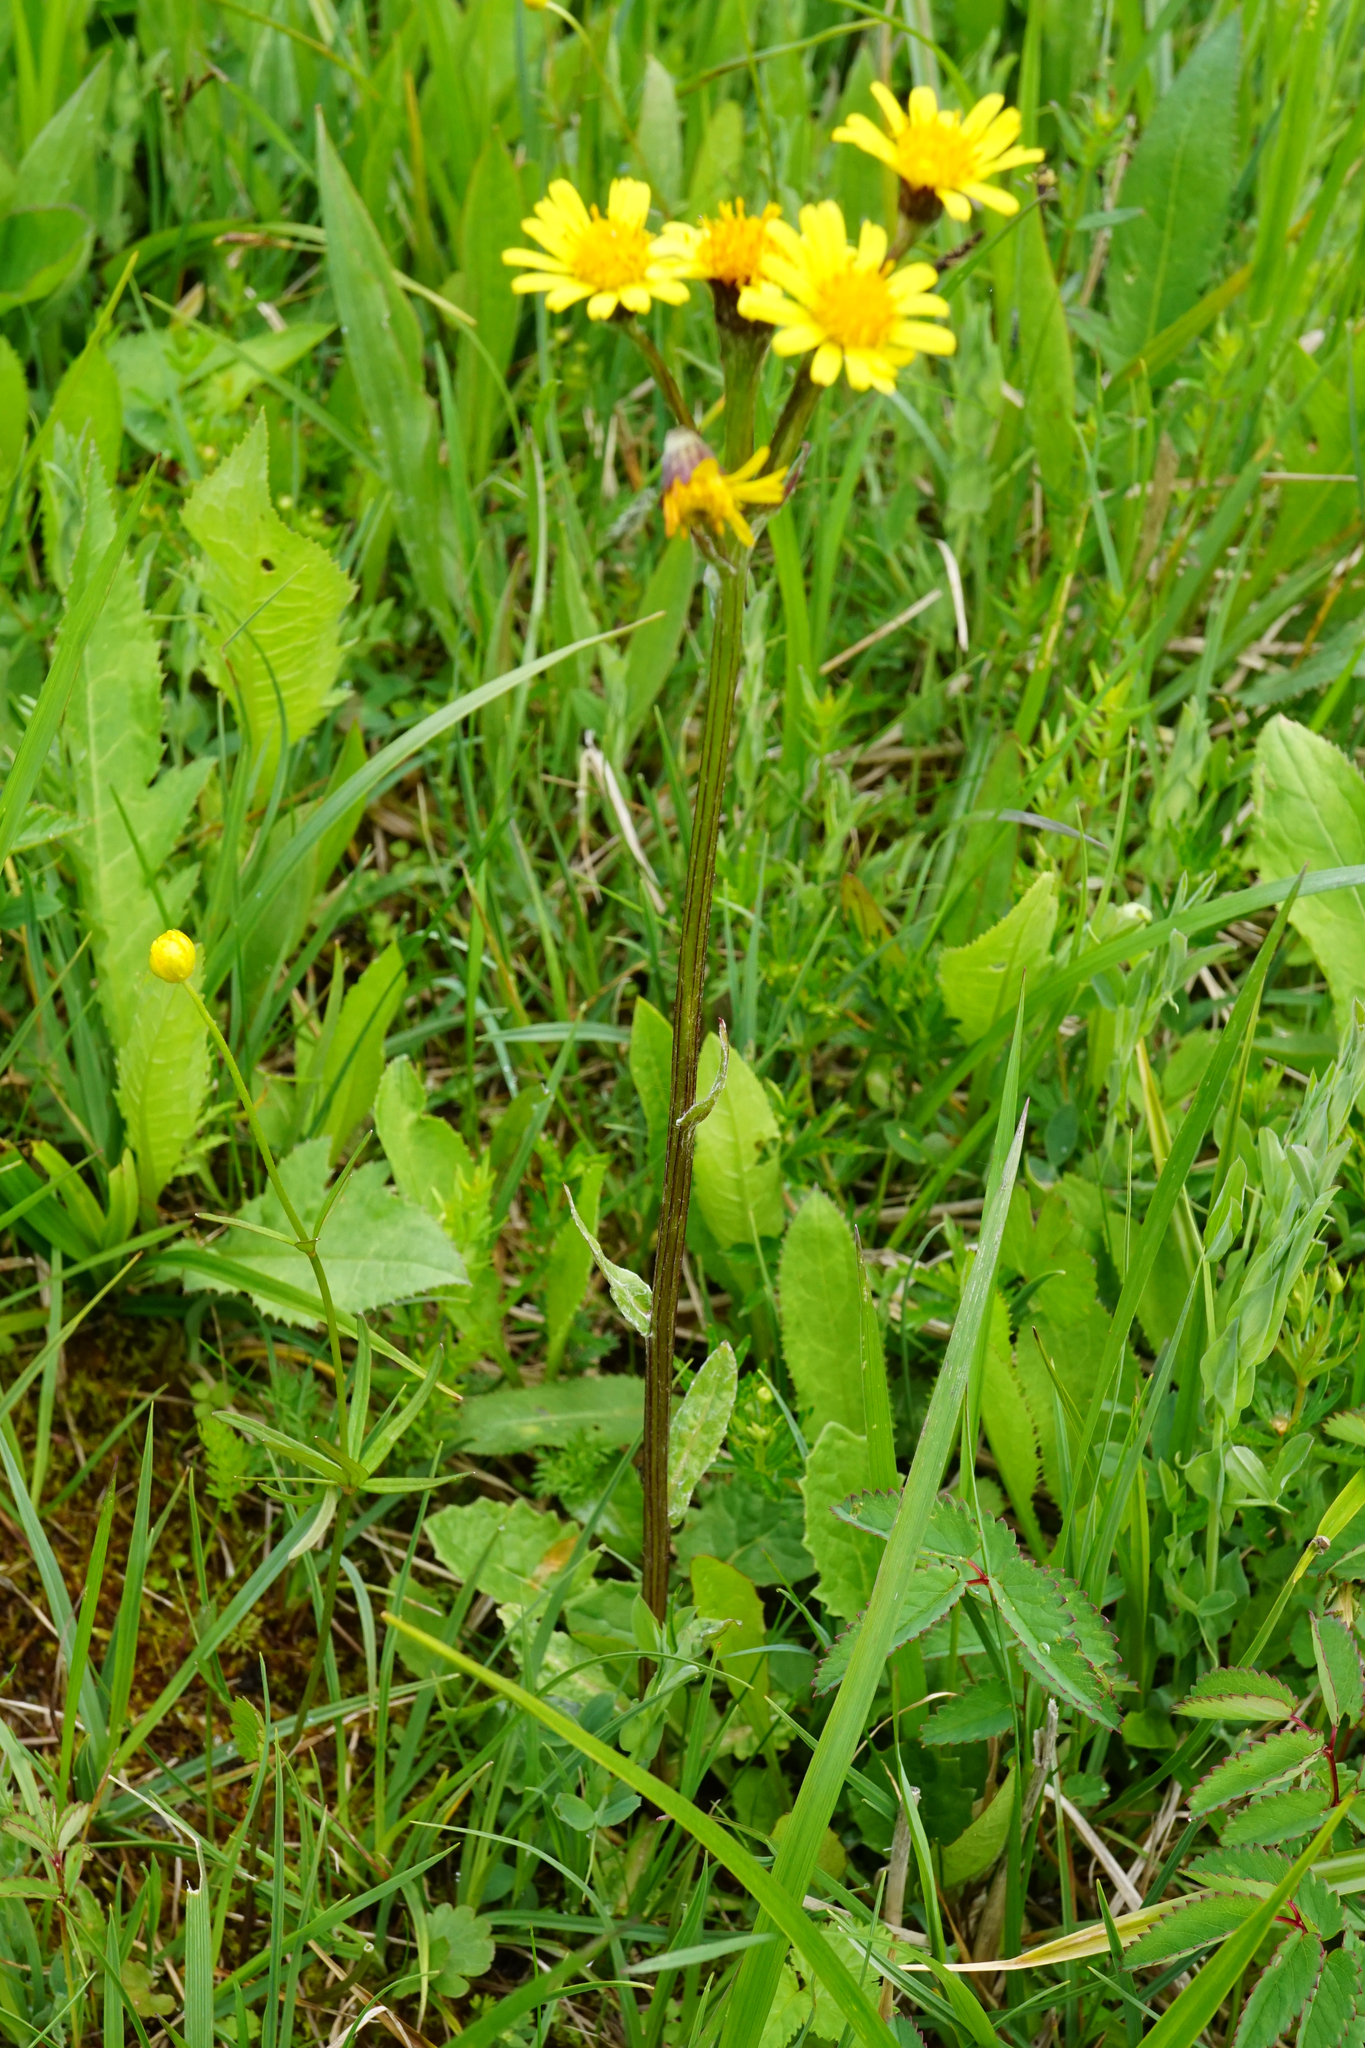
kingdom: Plantae
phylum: Tracheophyta
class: Magnoliopsida
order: Asterales
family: Asteraceae
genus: Tephroseris
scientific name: Tephroseris crispa
